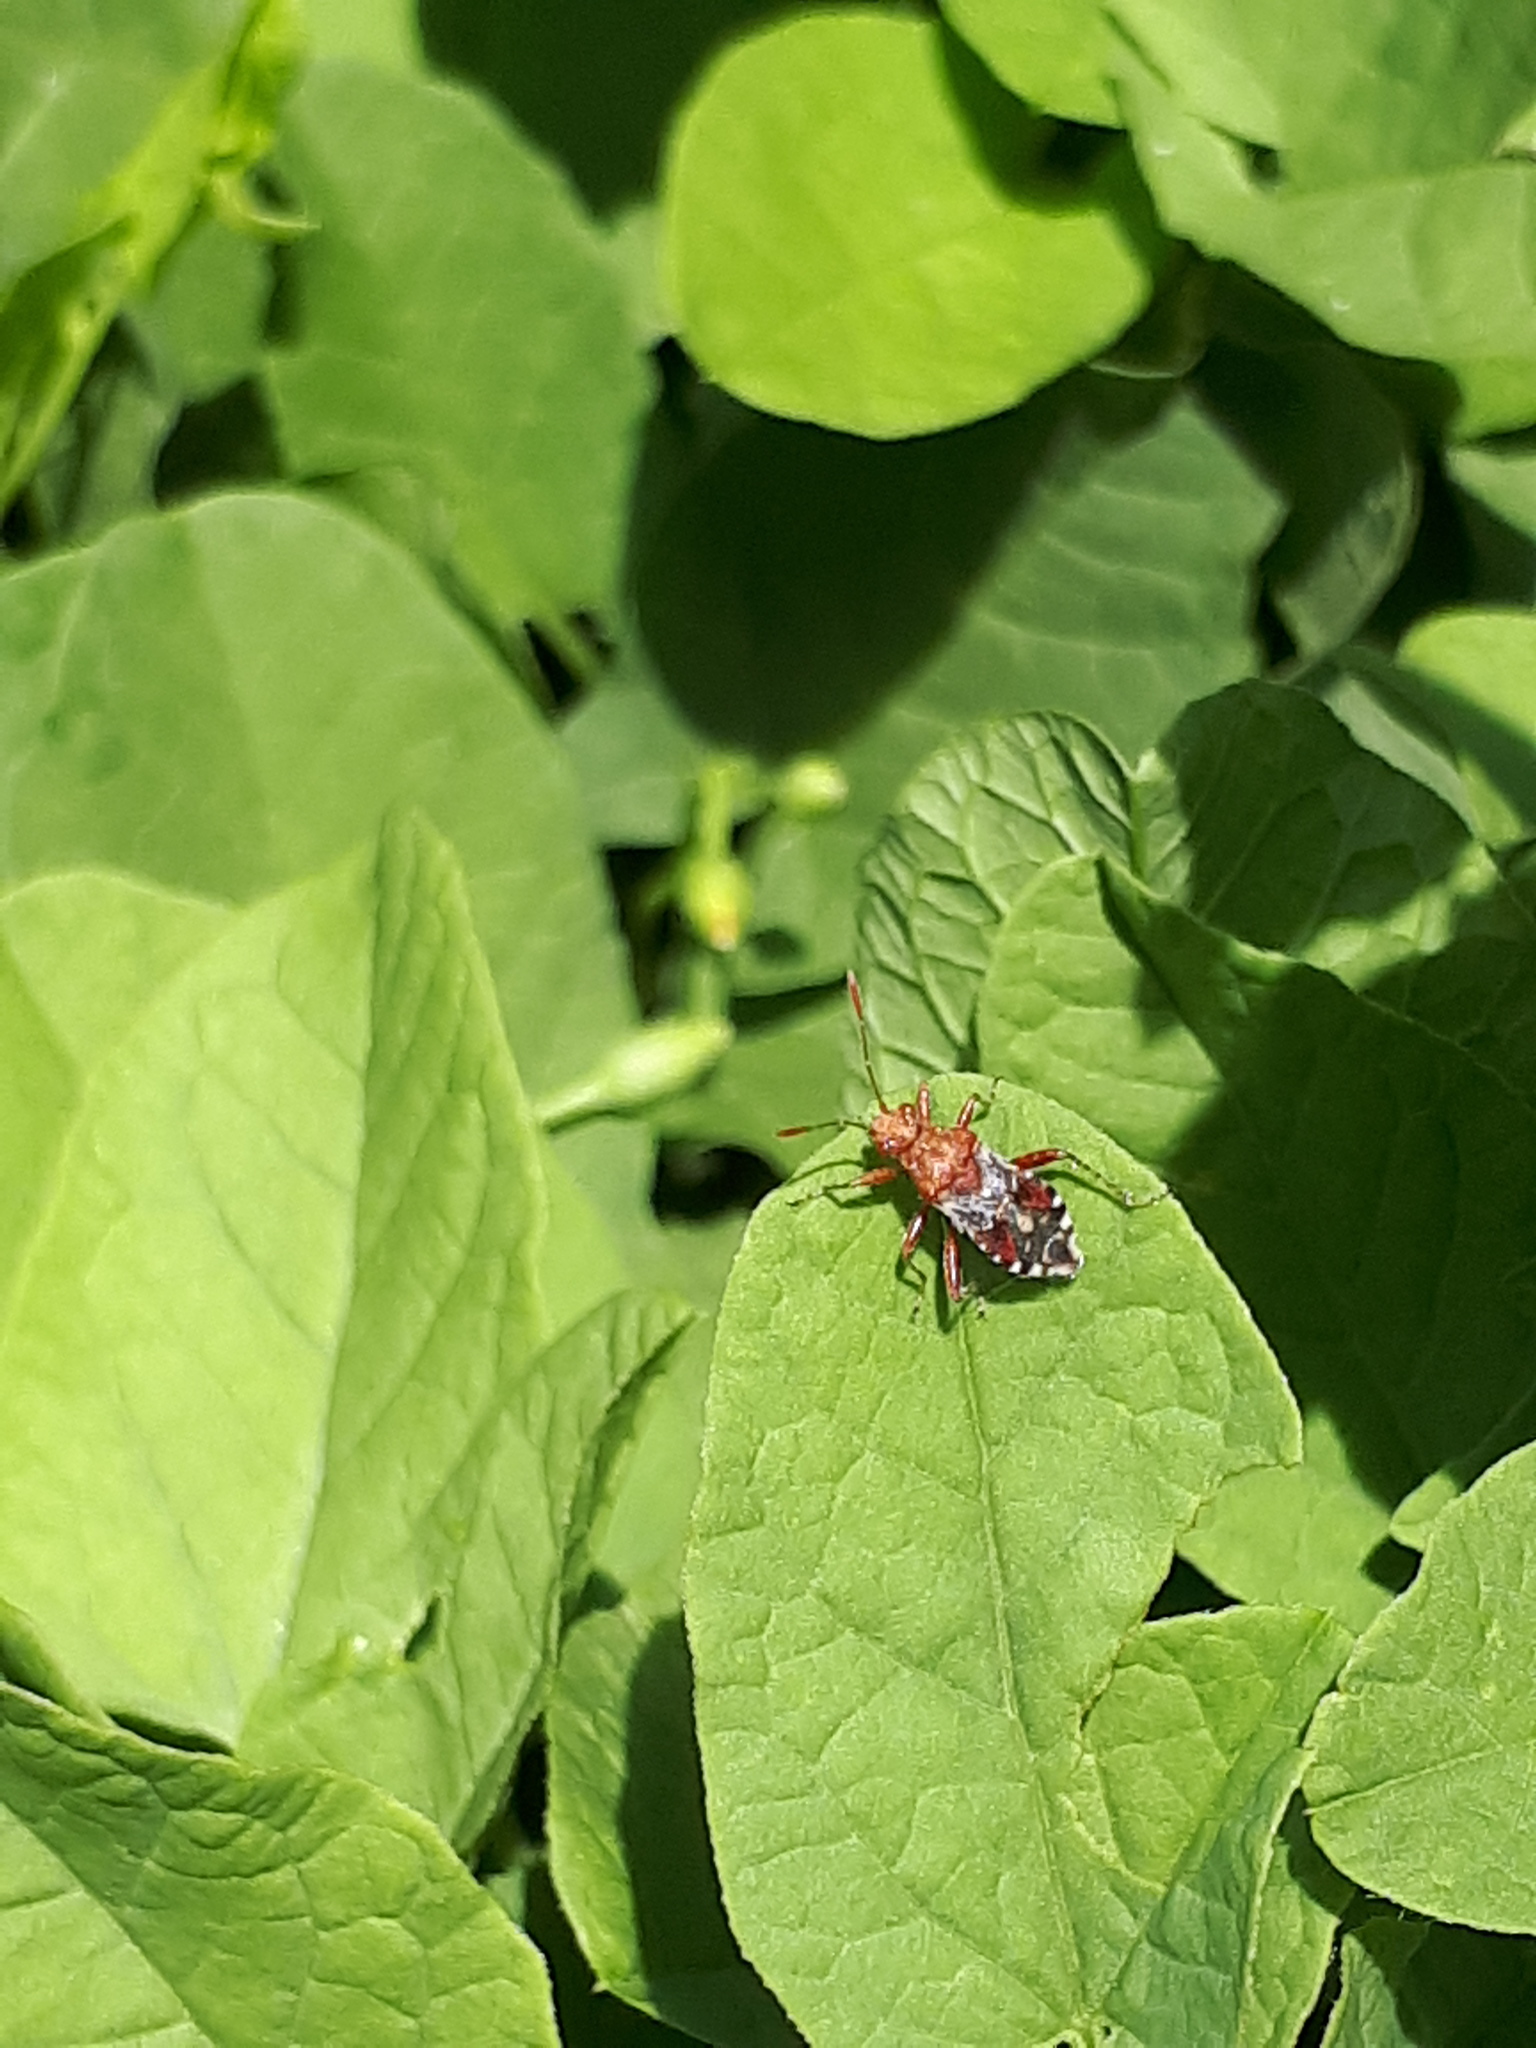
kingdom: Animalia
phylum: Arthropoda
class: Insecta
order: Hemiptera
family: Rhopalidae
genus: Rhopalus
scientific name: Rhopalus subrufus
